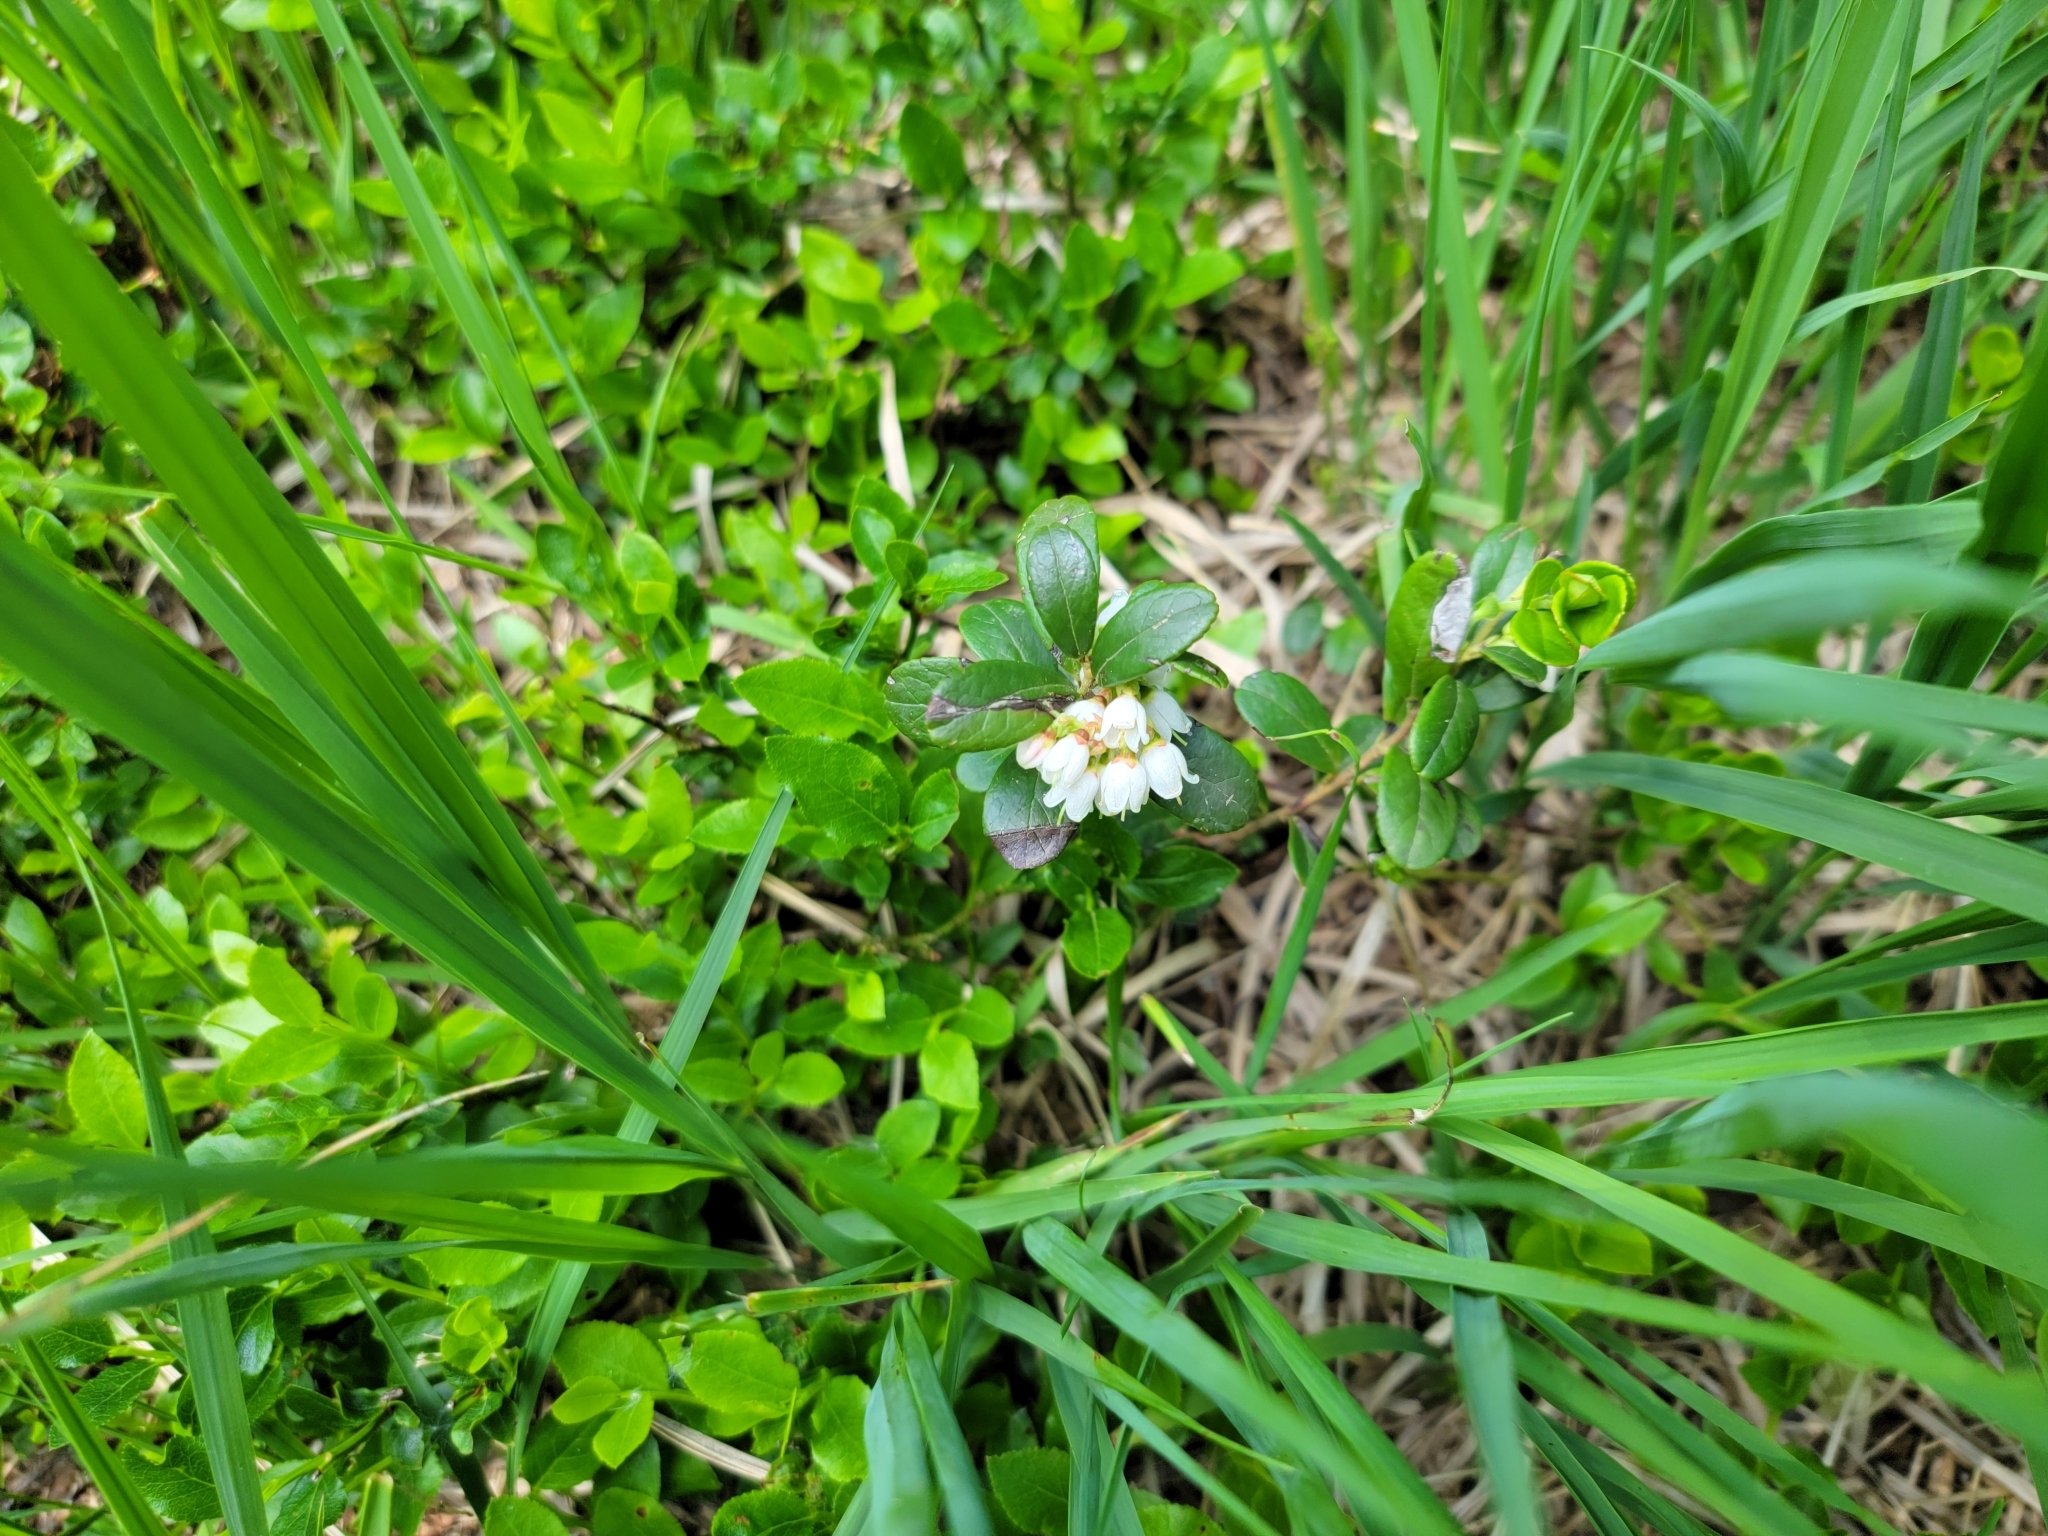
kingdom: Plantae
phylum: Tracheophyta
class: Magnoliopsida
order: Ericales
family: Ericaceae
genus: Vaccinium
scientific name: Vaccinium vitis-idaea
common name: Cowberry
